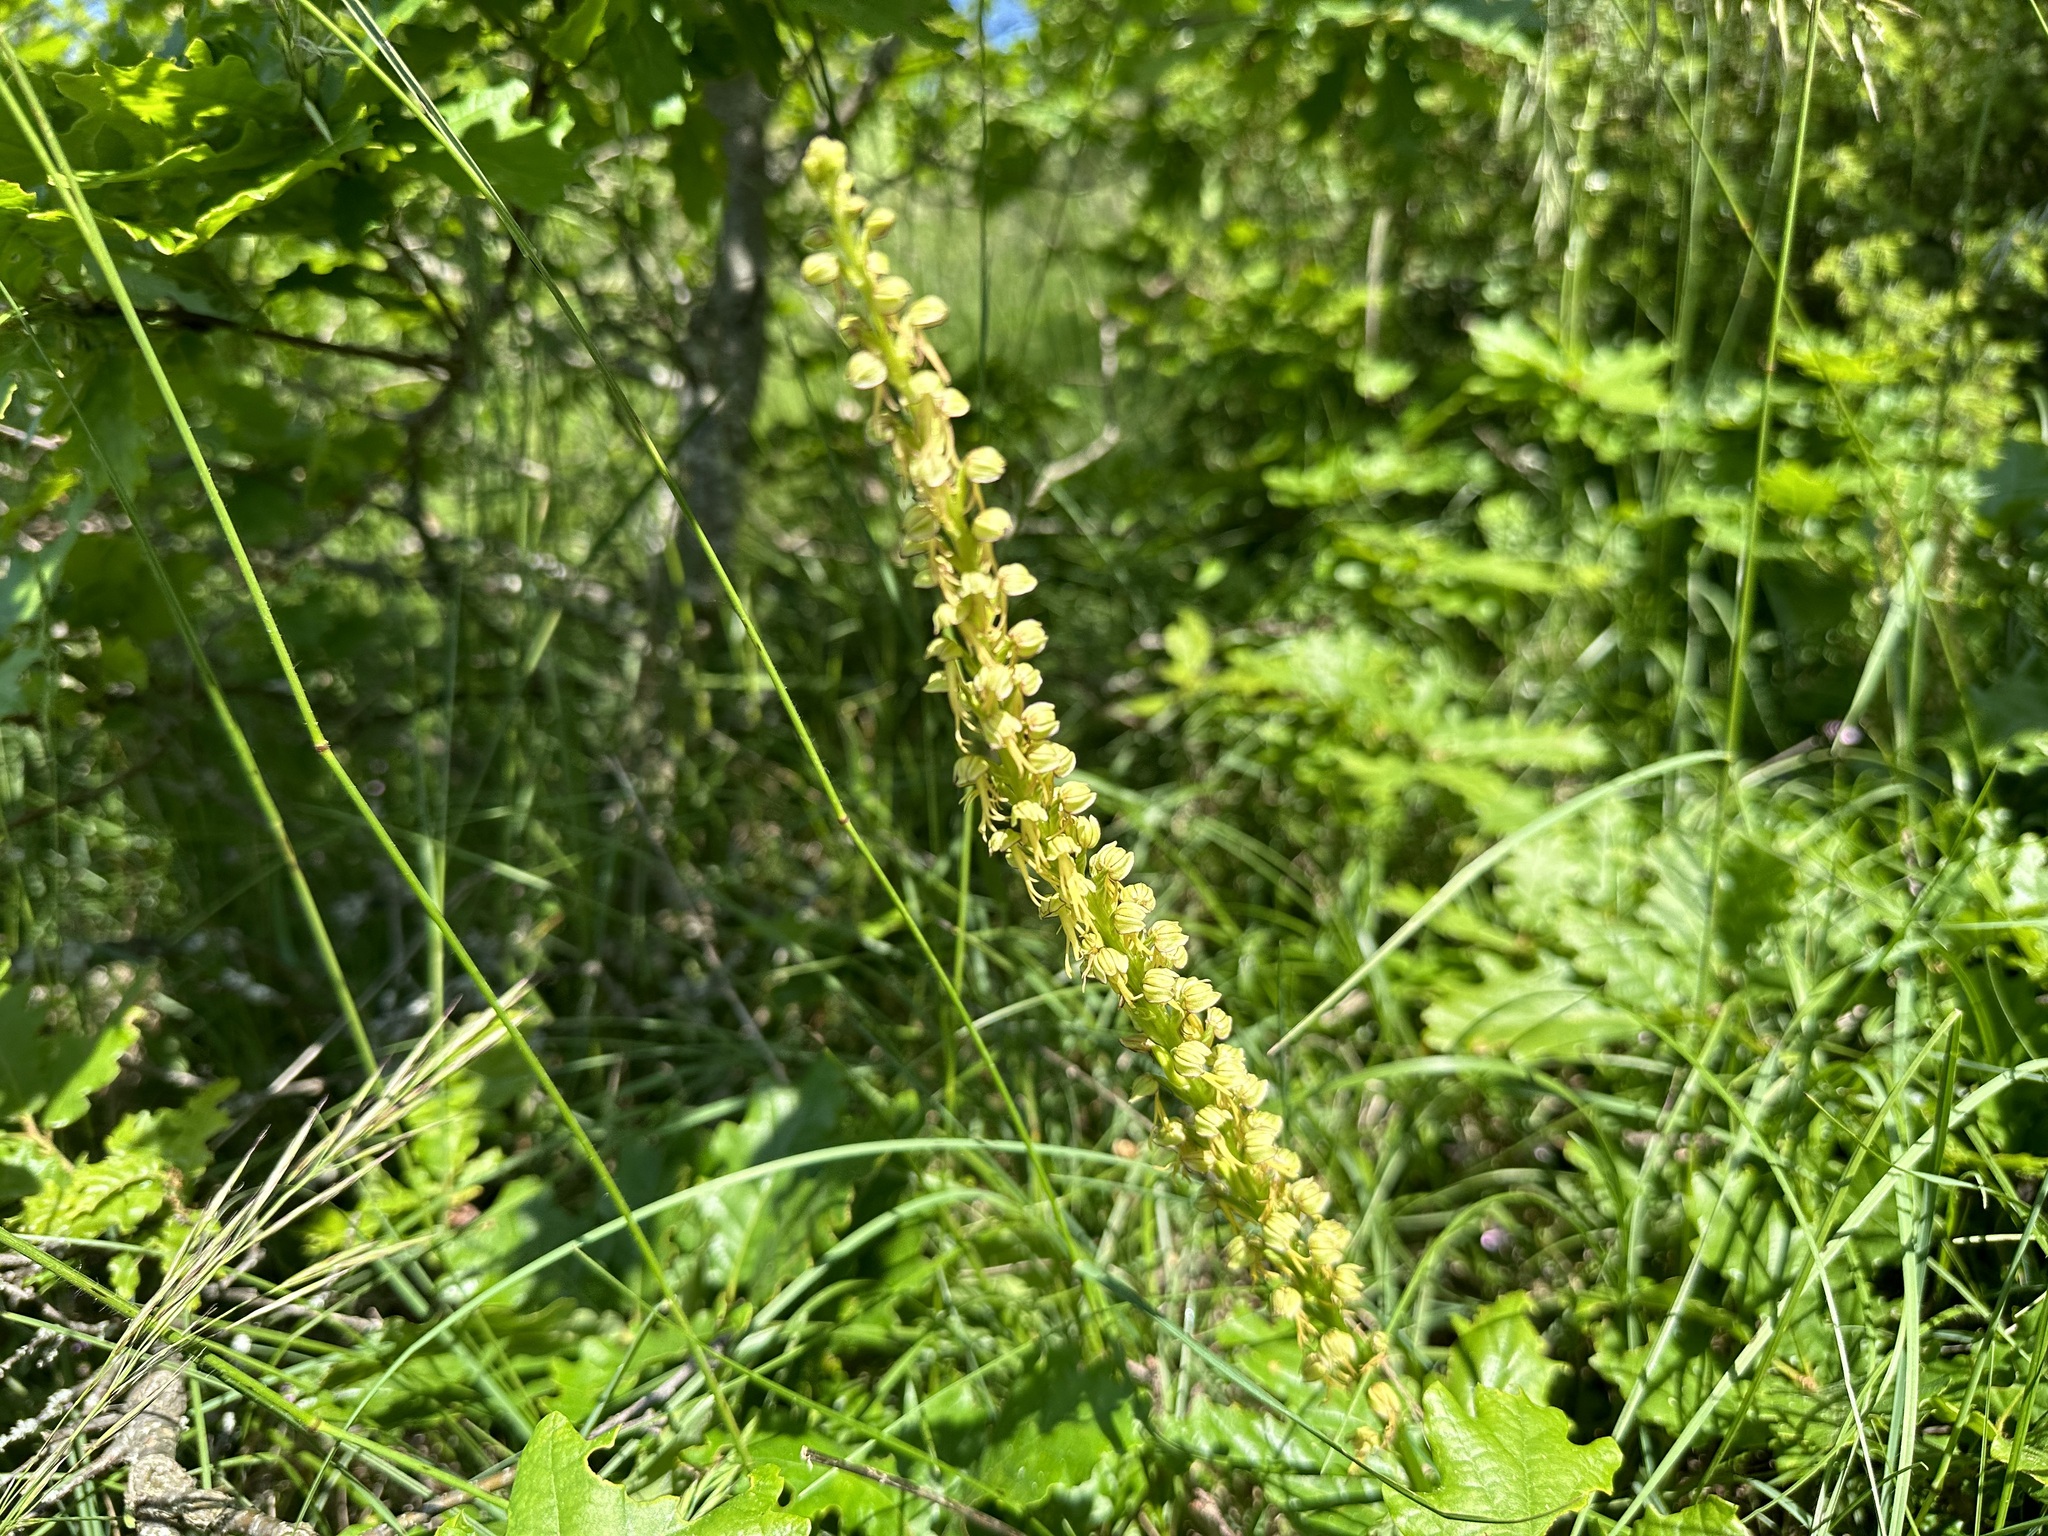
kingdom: Plantae
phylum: Tracheophyta
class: Liliopsida
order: Asparagales
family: Orchidaceae
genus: Orchis
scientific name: Orchis anthropophora
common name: Man orchid
